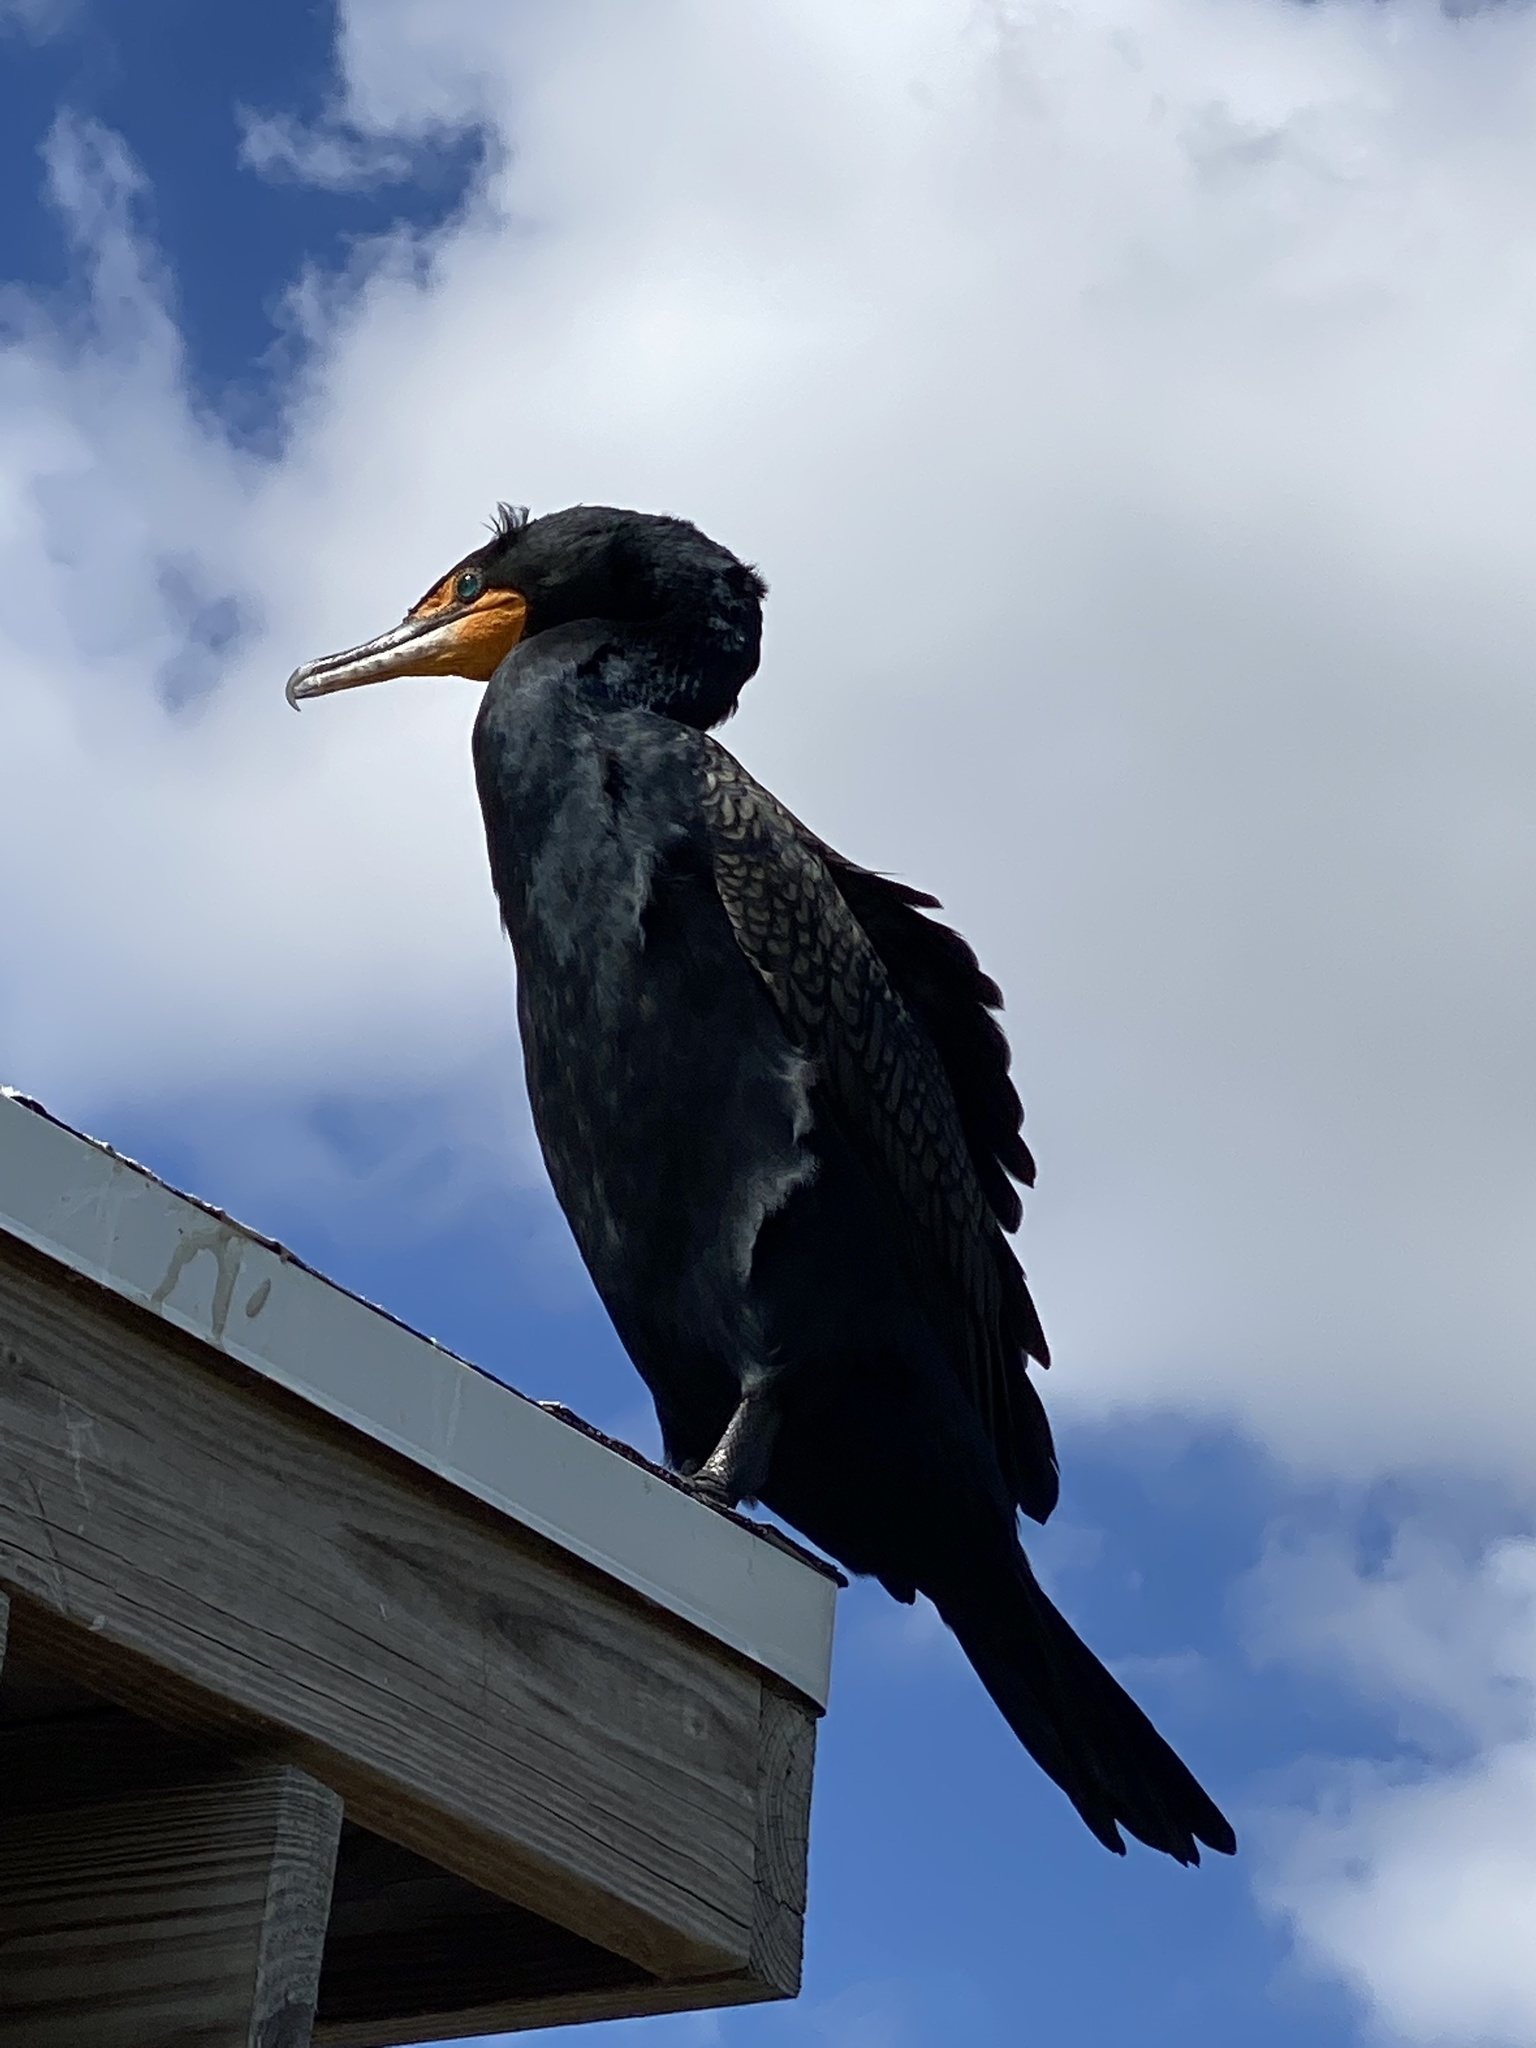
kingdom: Animalia
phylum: Chordata
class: Aves
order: Suliformes
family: Phalacrocoracidae
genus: Phalacrocorax
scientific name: Phalacrocorax auritus
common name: Double-crested cormorant
